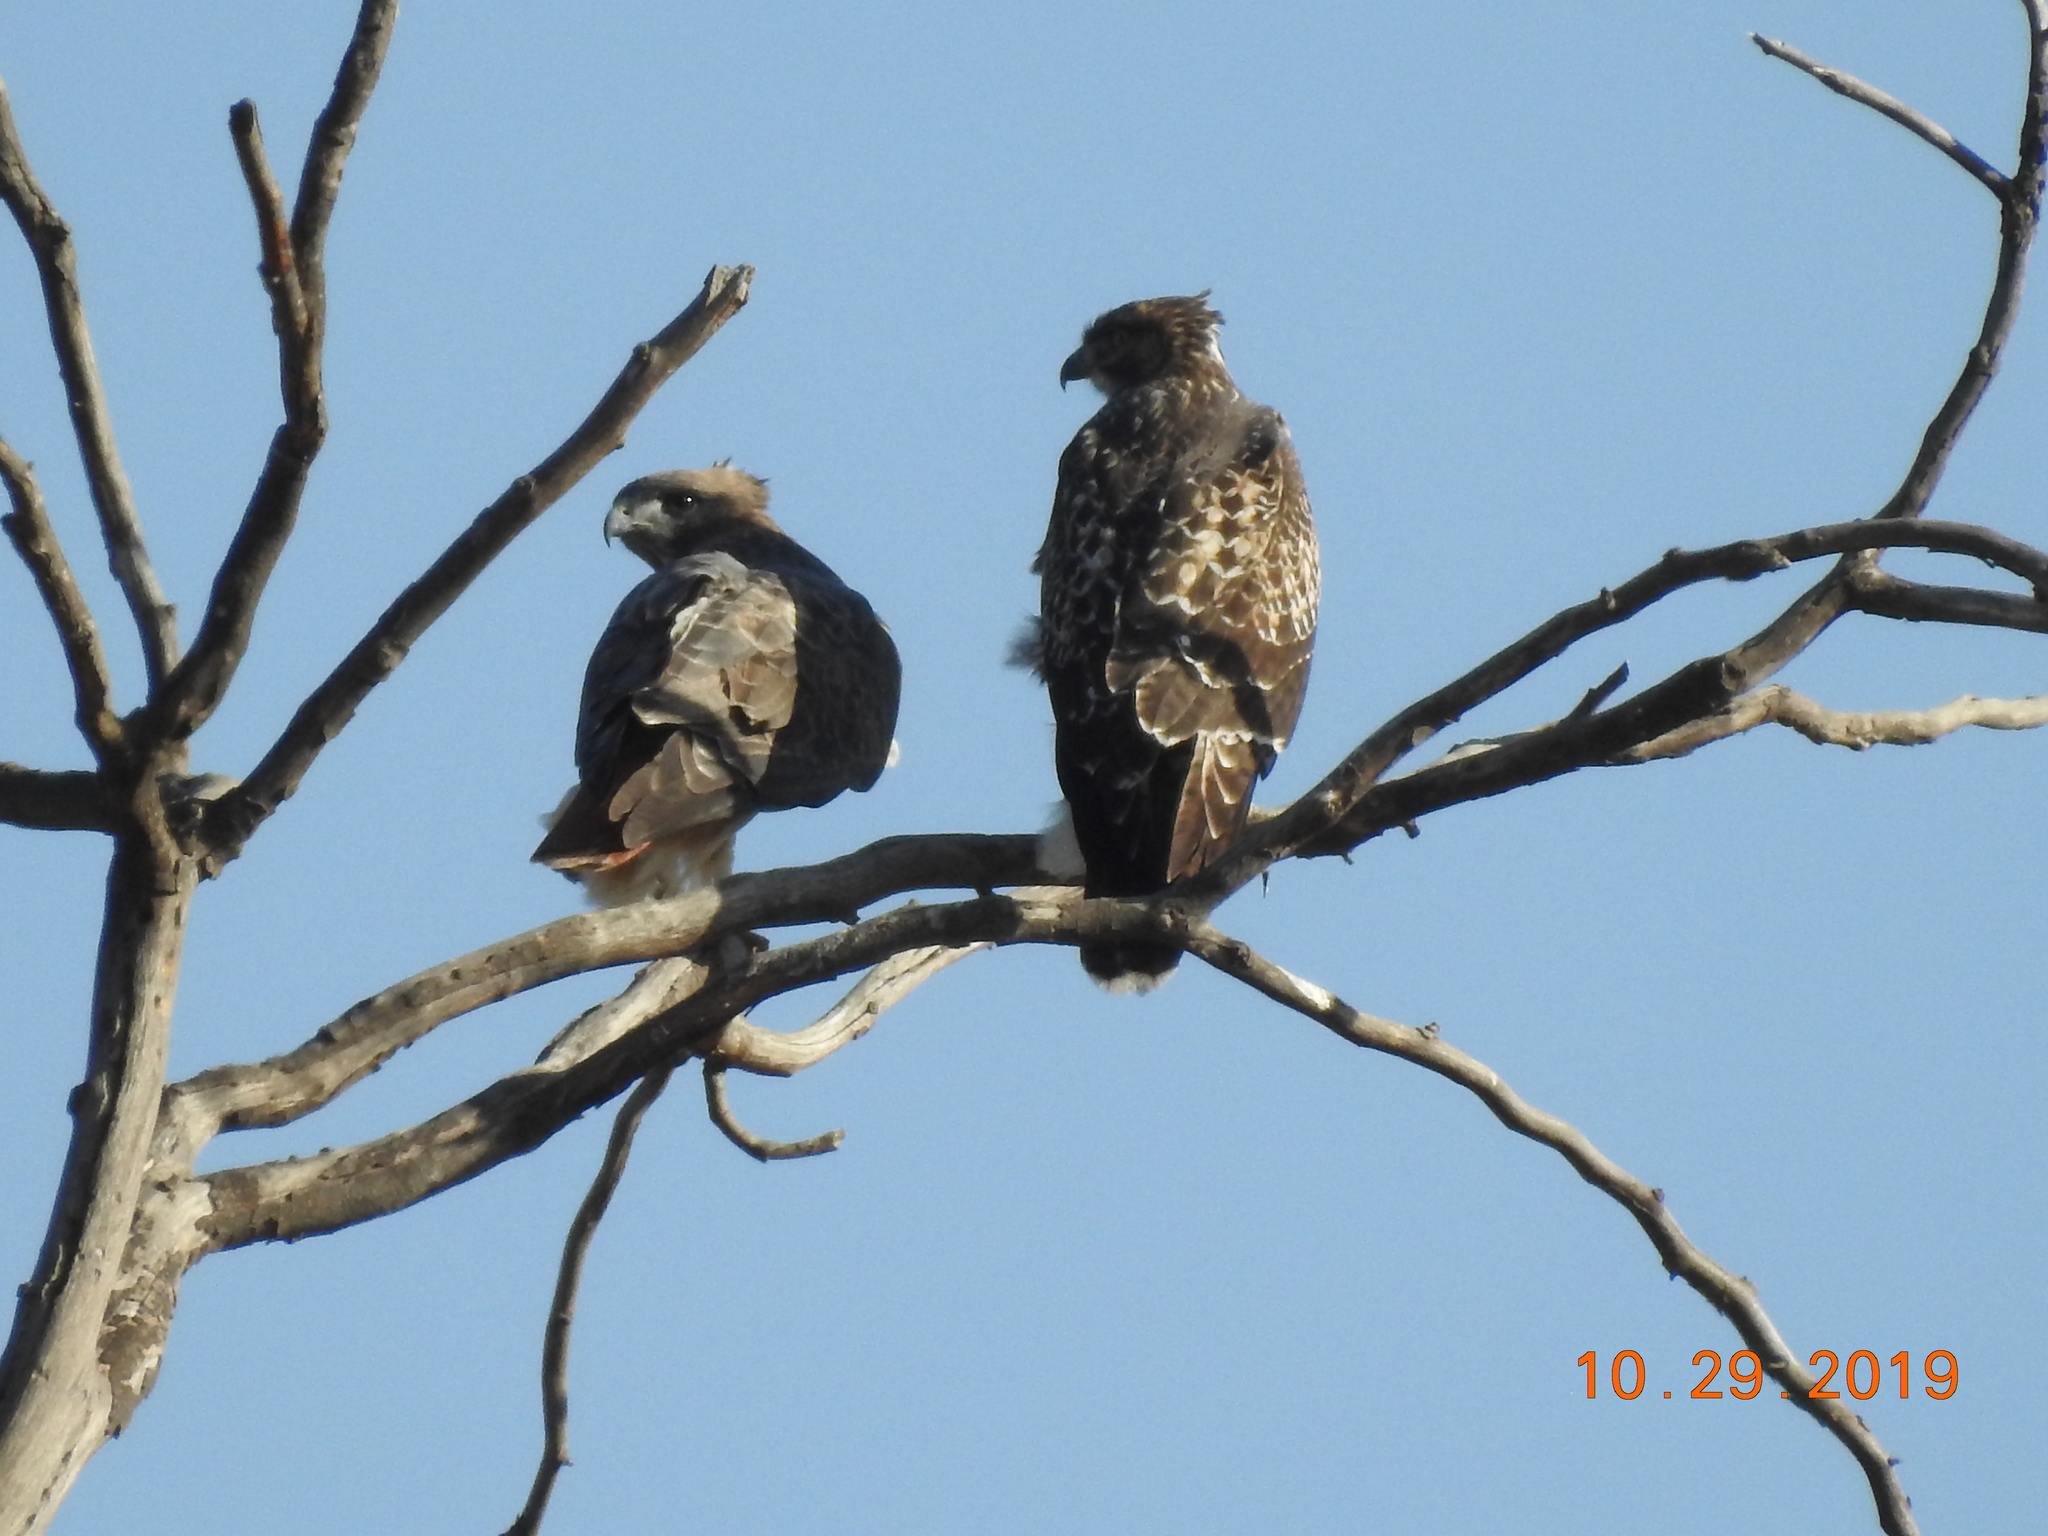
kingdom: Animalia
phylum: Chordata
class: Aves
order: Accipitriformes
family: Accipitridae
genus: Buteo
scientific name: Buteo jamaicensis
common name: Red-tailed hawk
